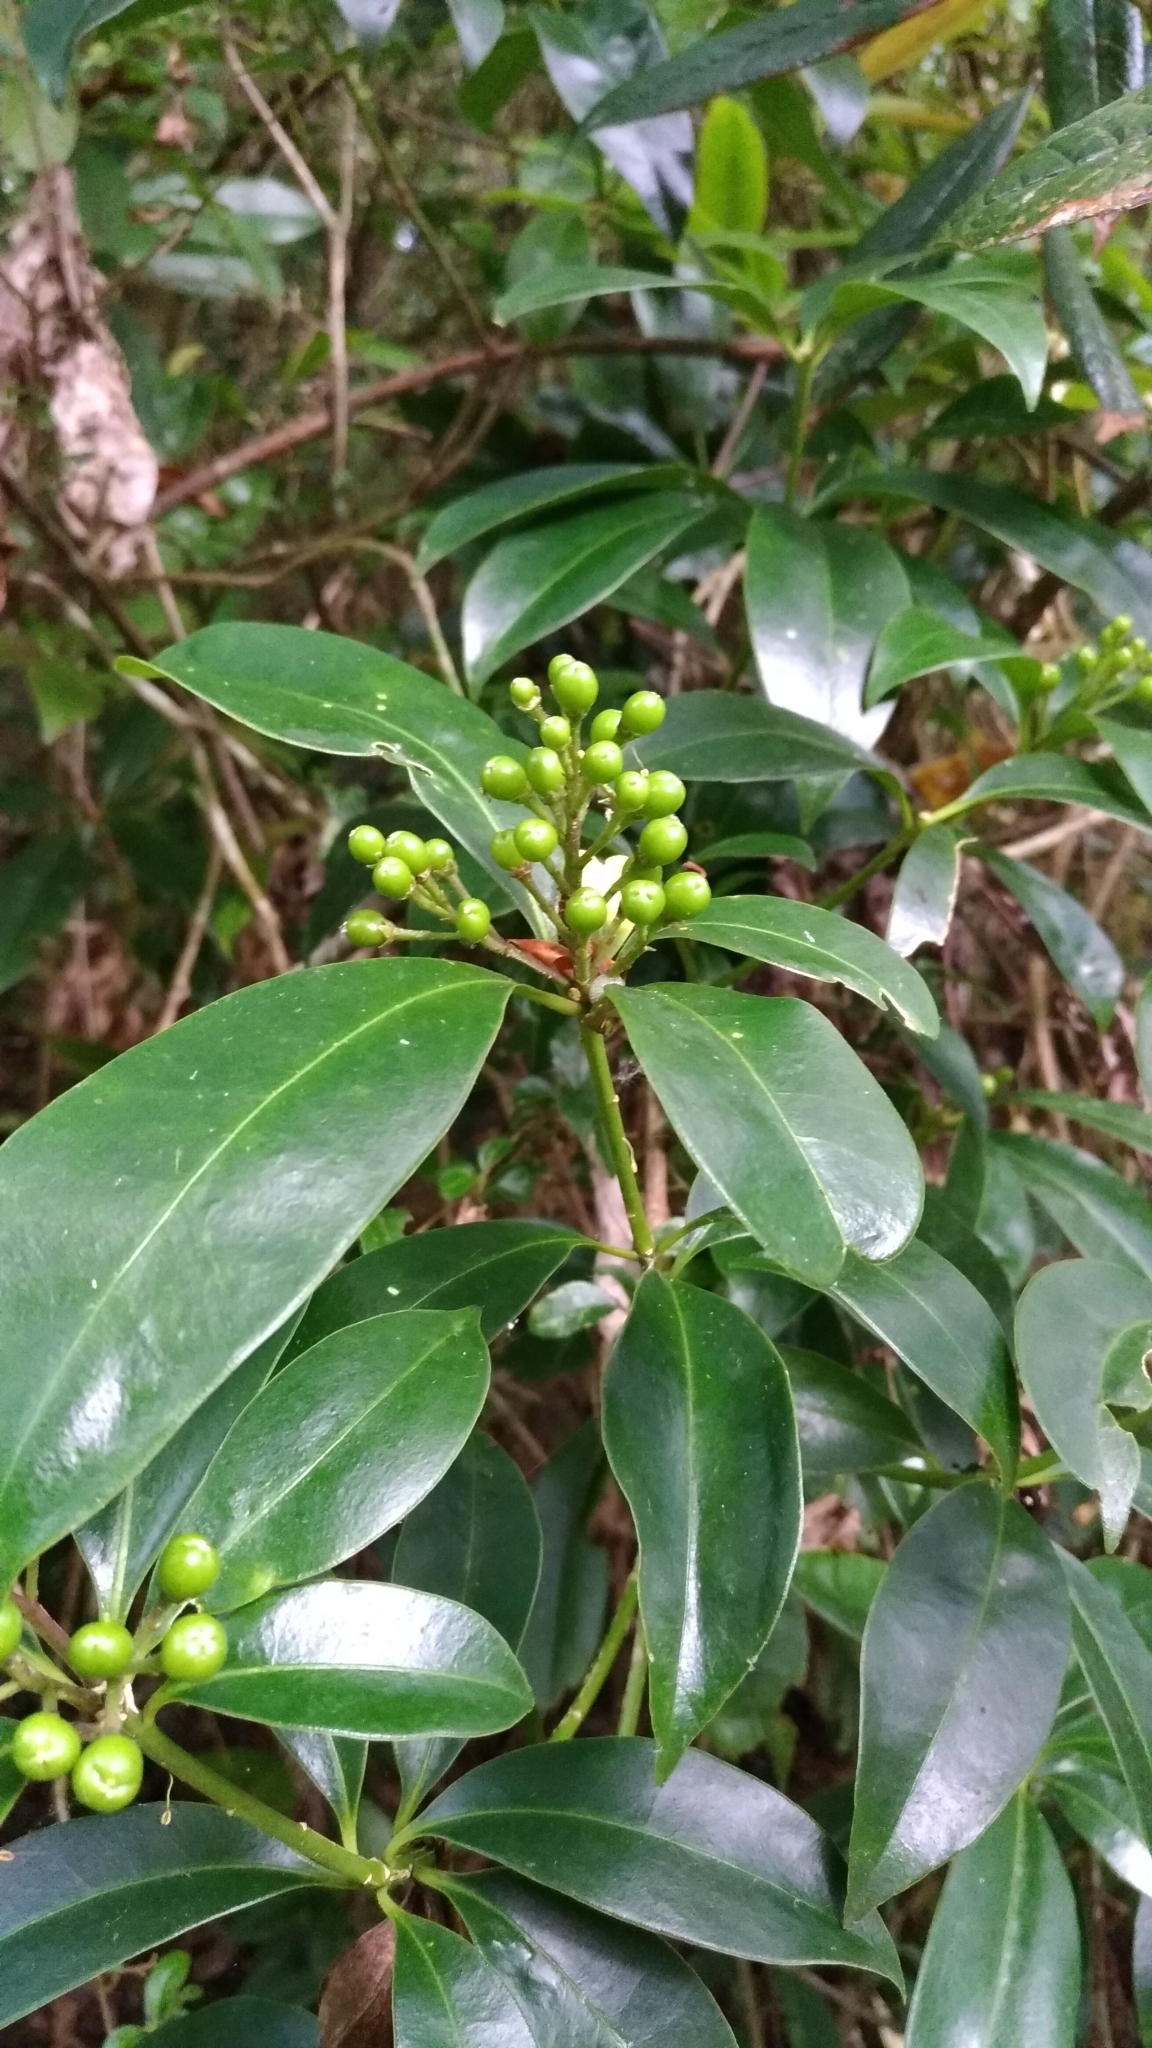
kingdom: Plantae
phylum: Tracheophyta
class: Magnoliopsida
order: Sapindales
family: Rutaceae
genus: Skimmia
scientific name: Skimmia japonica
